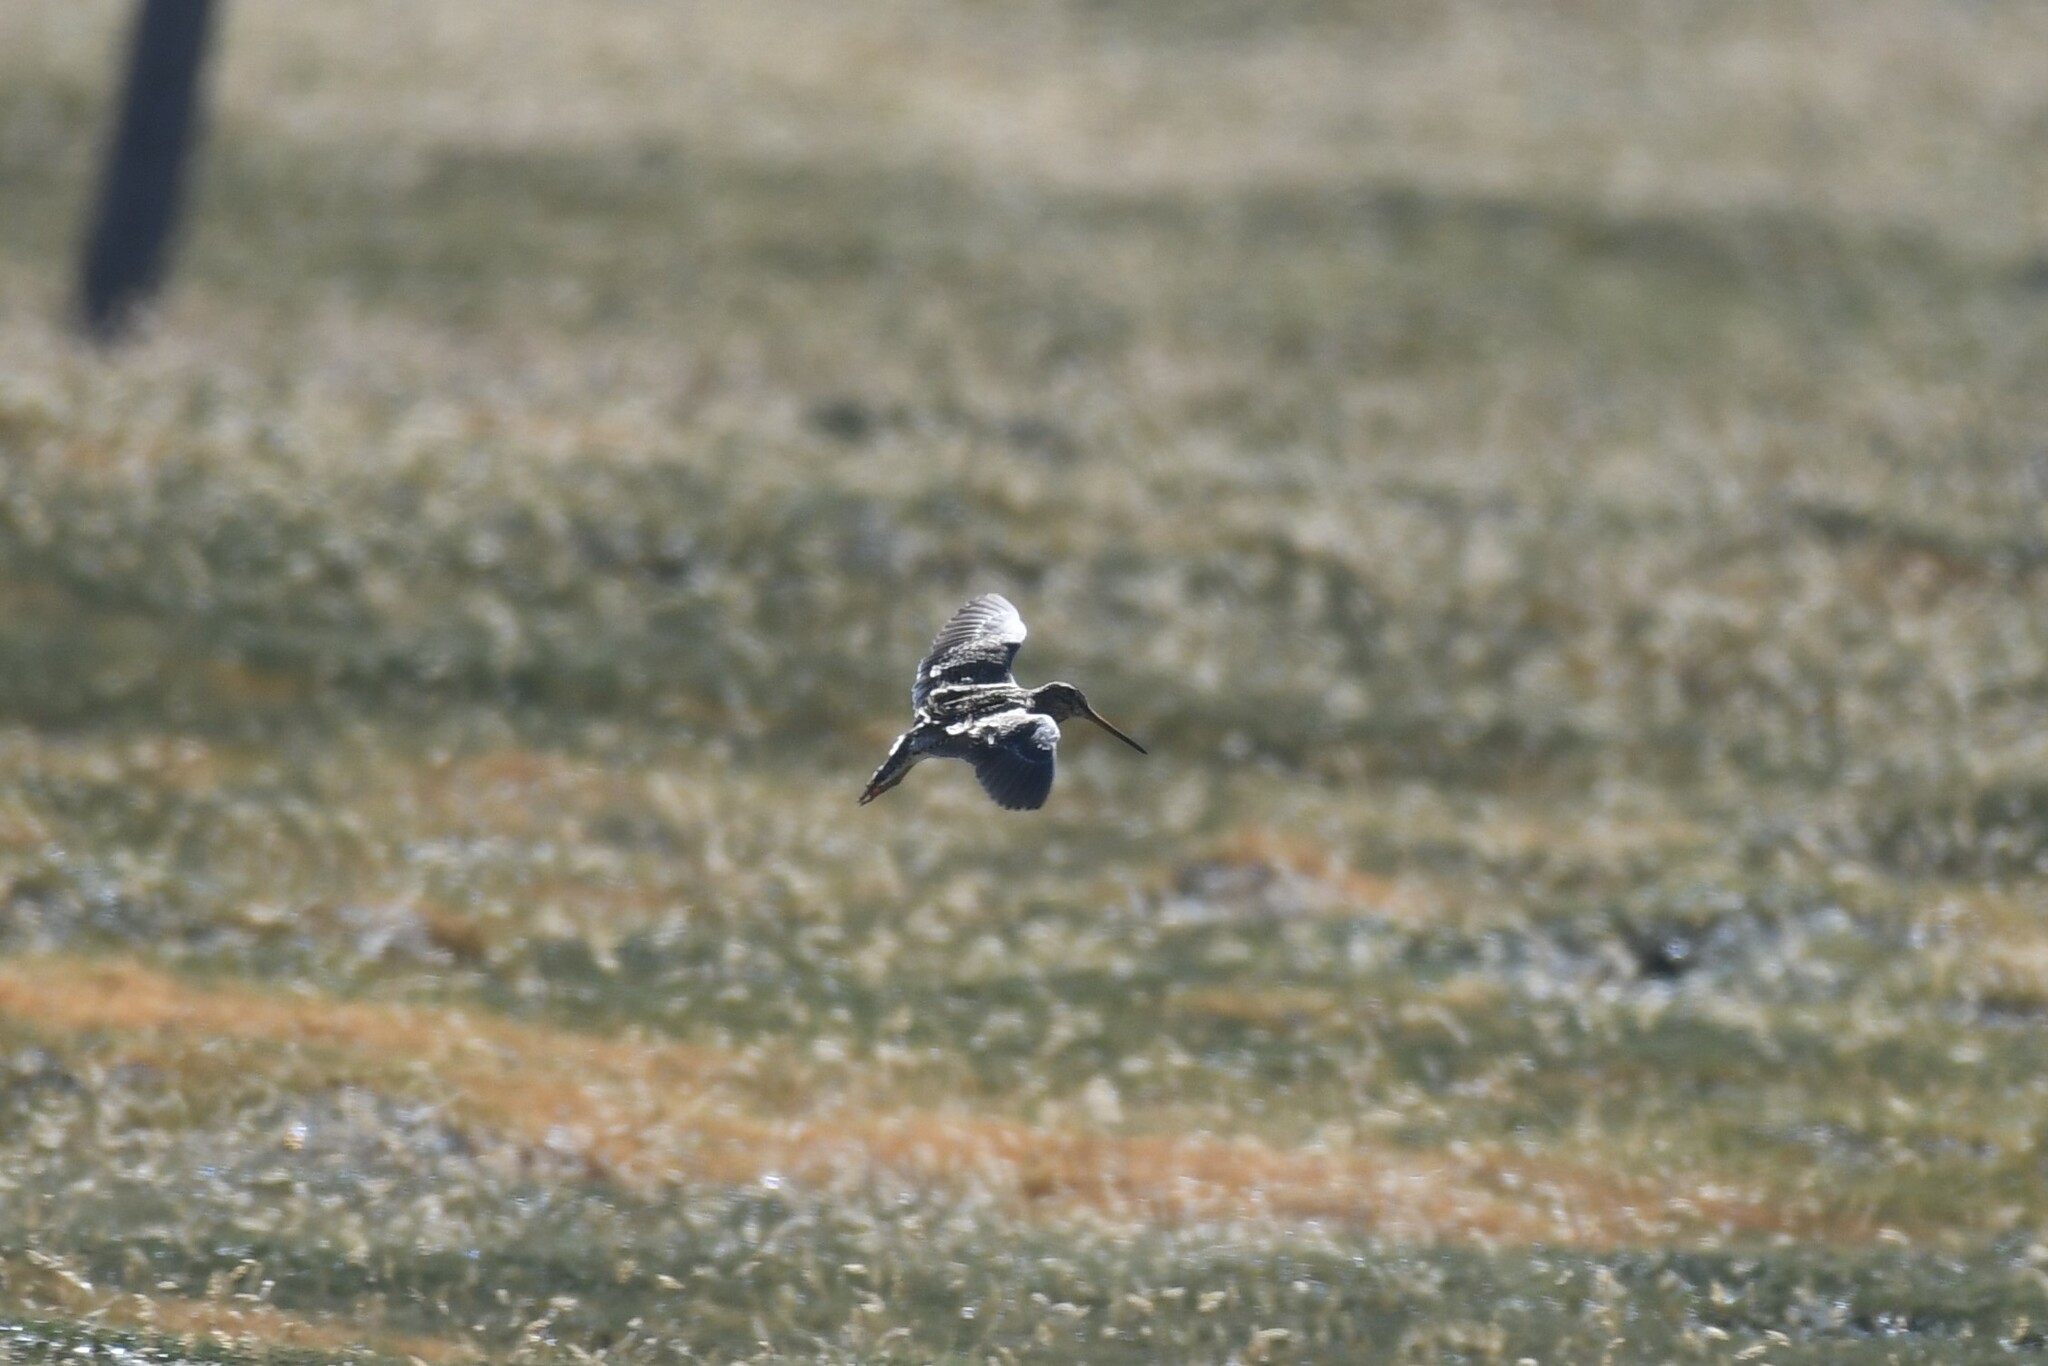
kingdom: Animalia
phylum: Chordata
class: Aves
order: Charadriiformes
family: Scolopacidae
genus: Gallinago
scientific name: Gallinago andina
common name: Puna snipe
